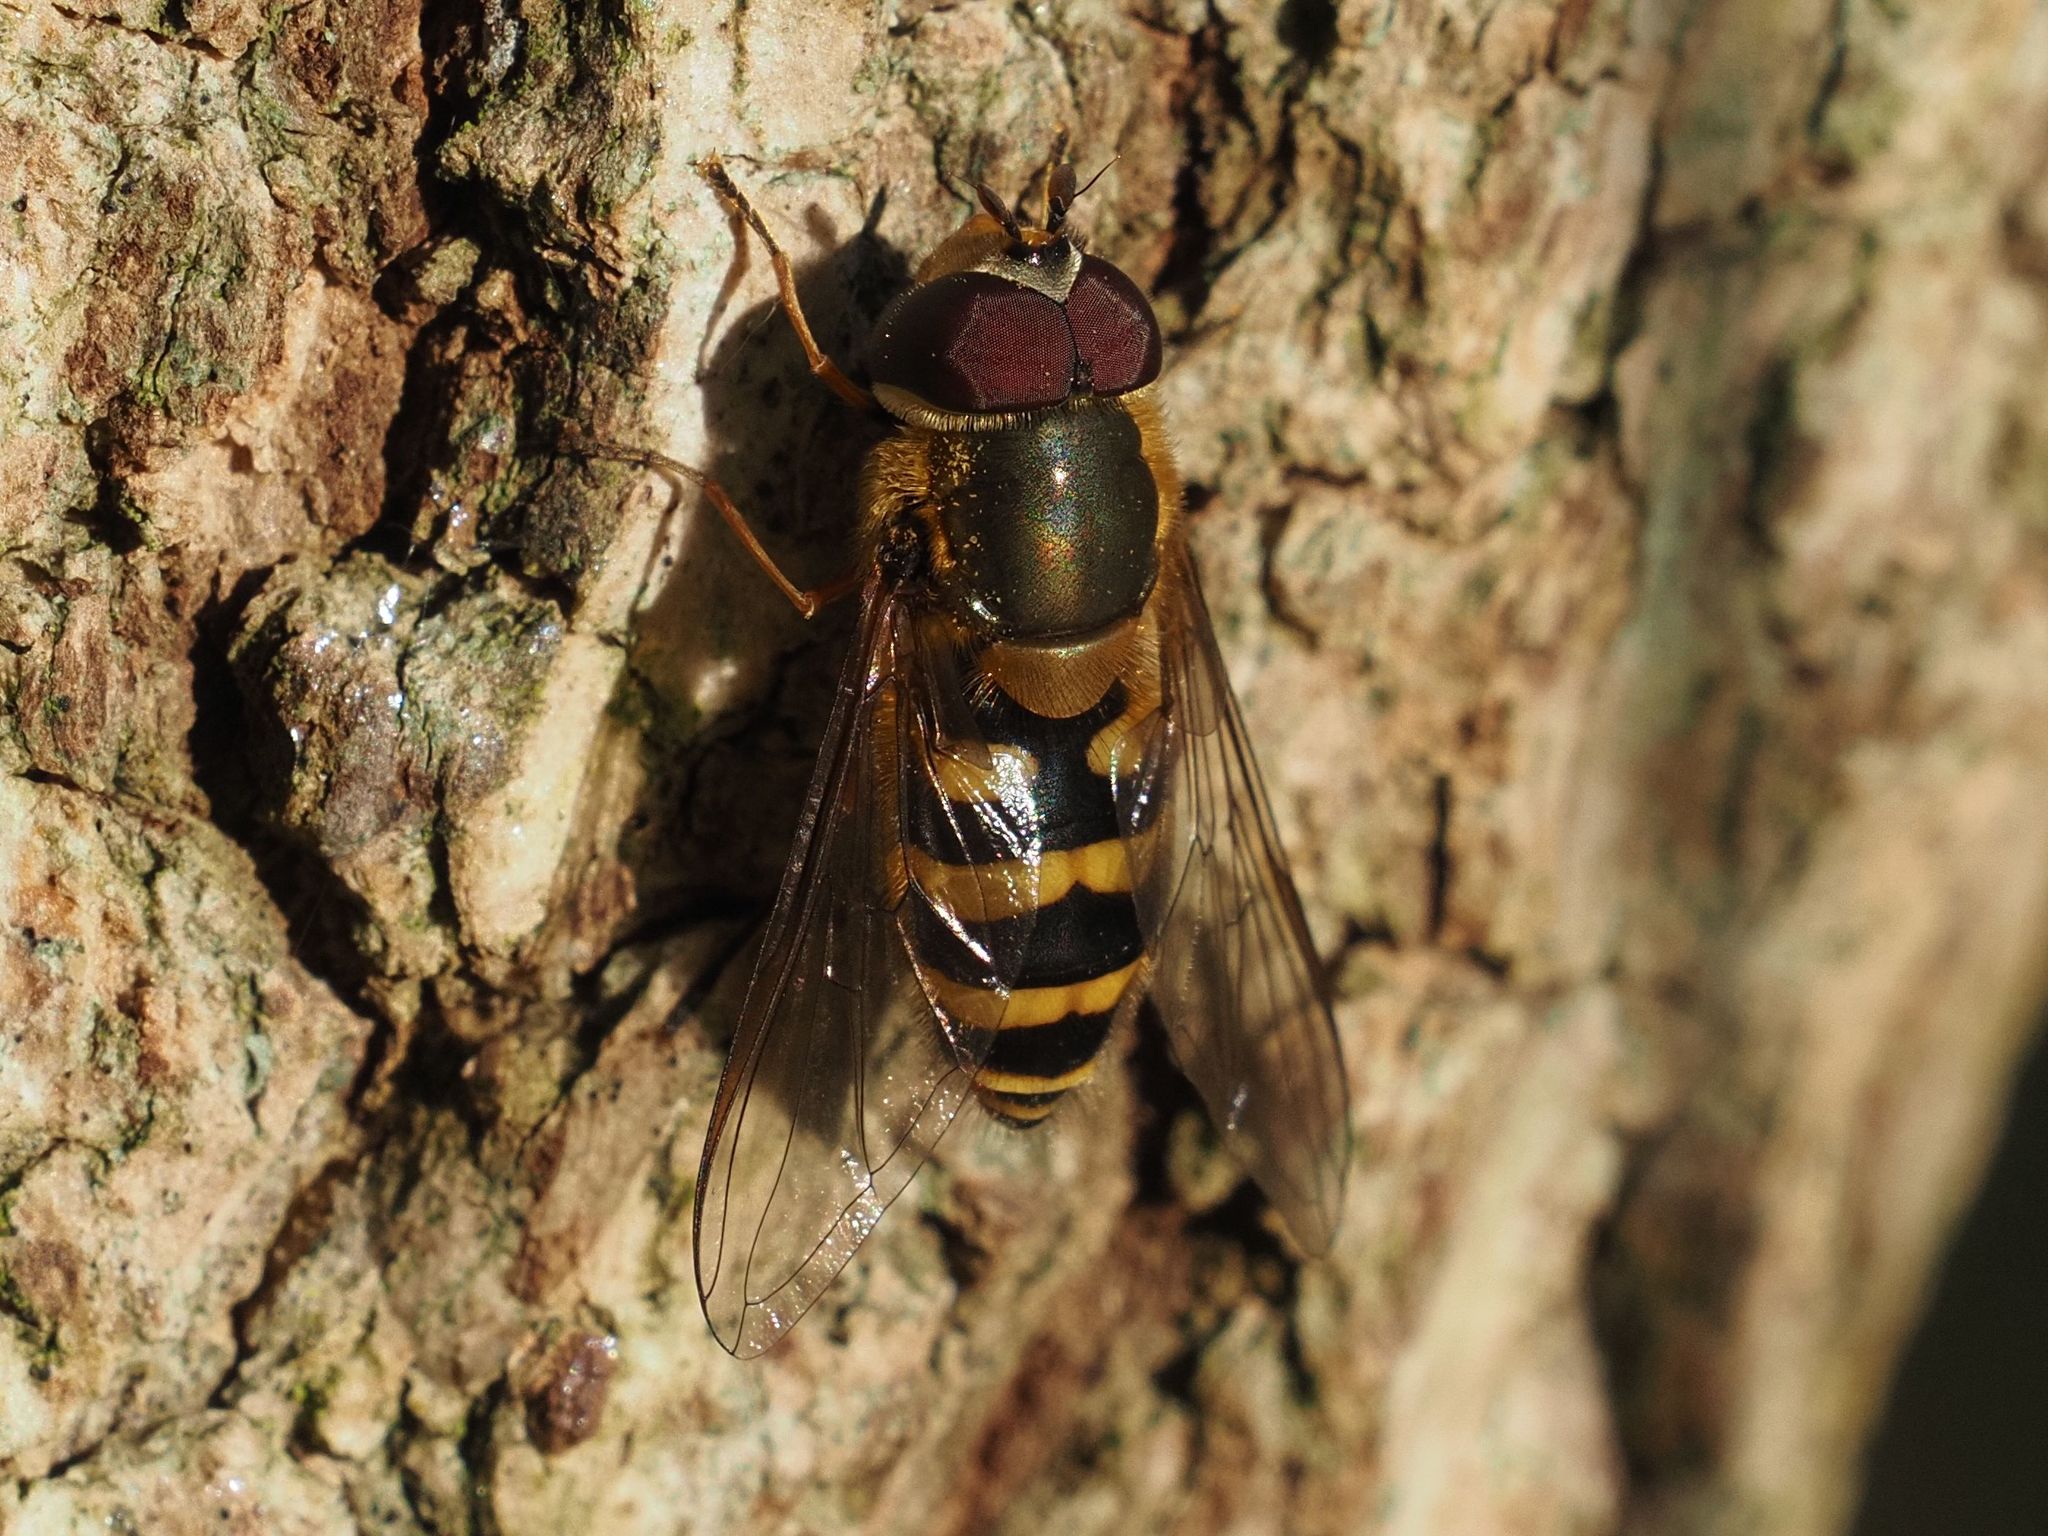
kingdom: Animalia
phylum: Arthropoda
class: Insecta
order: Diptera
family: Syrphidae
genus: Syrphus
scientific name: Syrphus torvus
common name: Hairy-eyed flower fly
